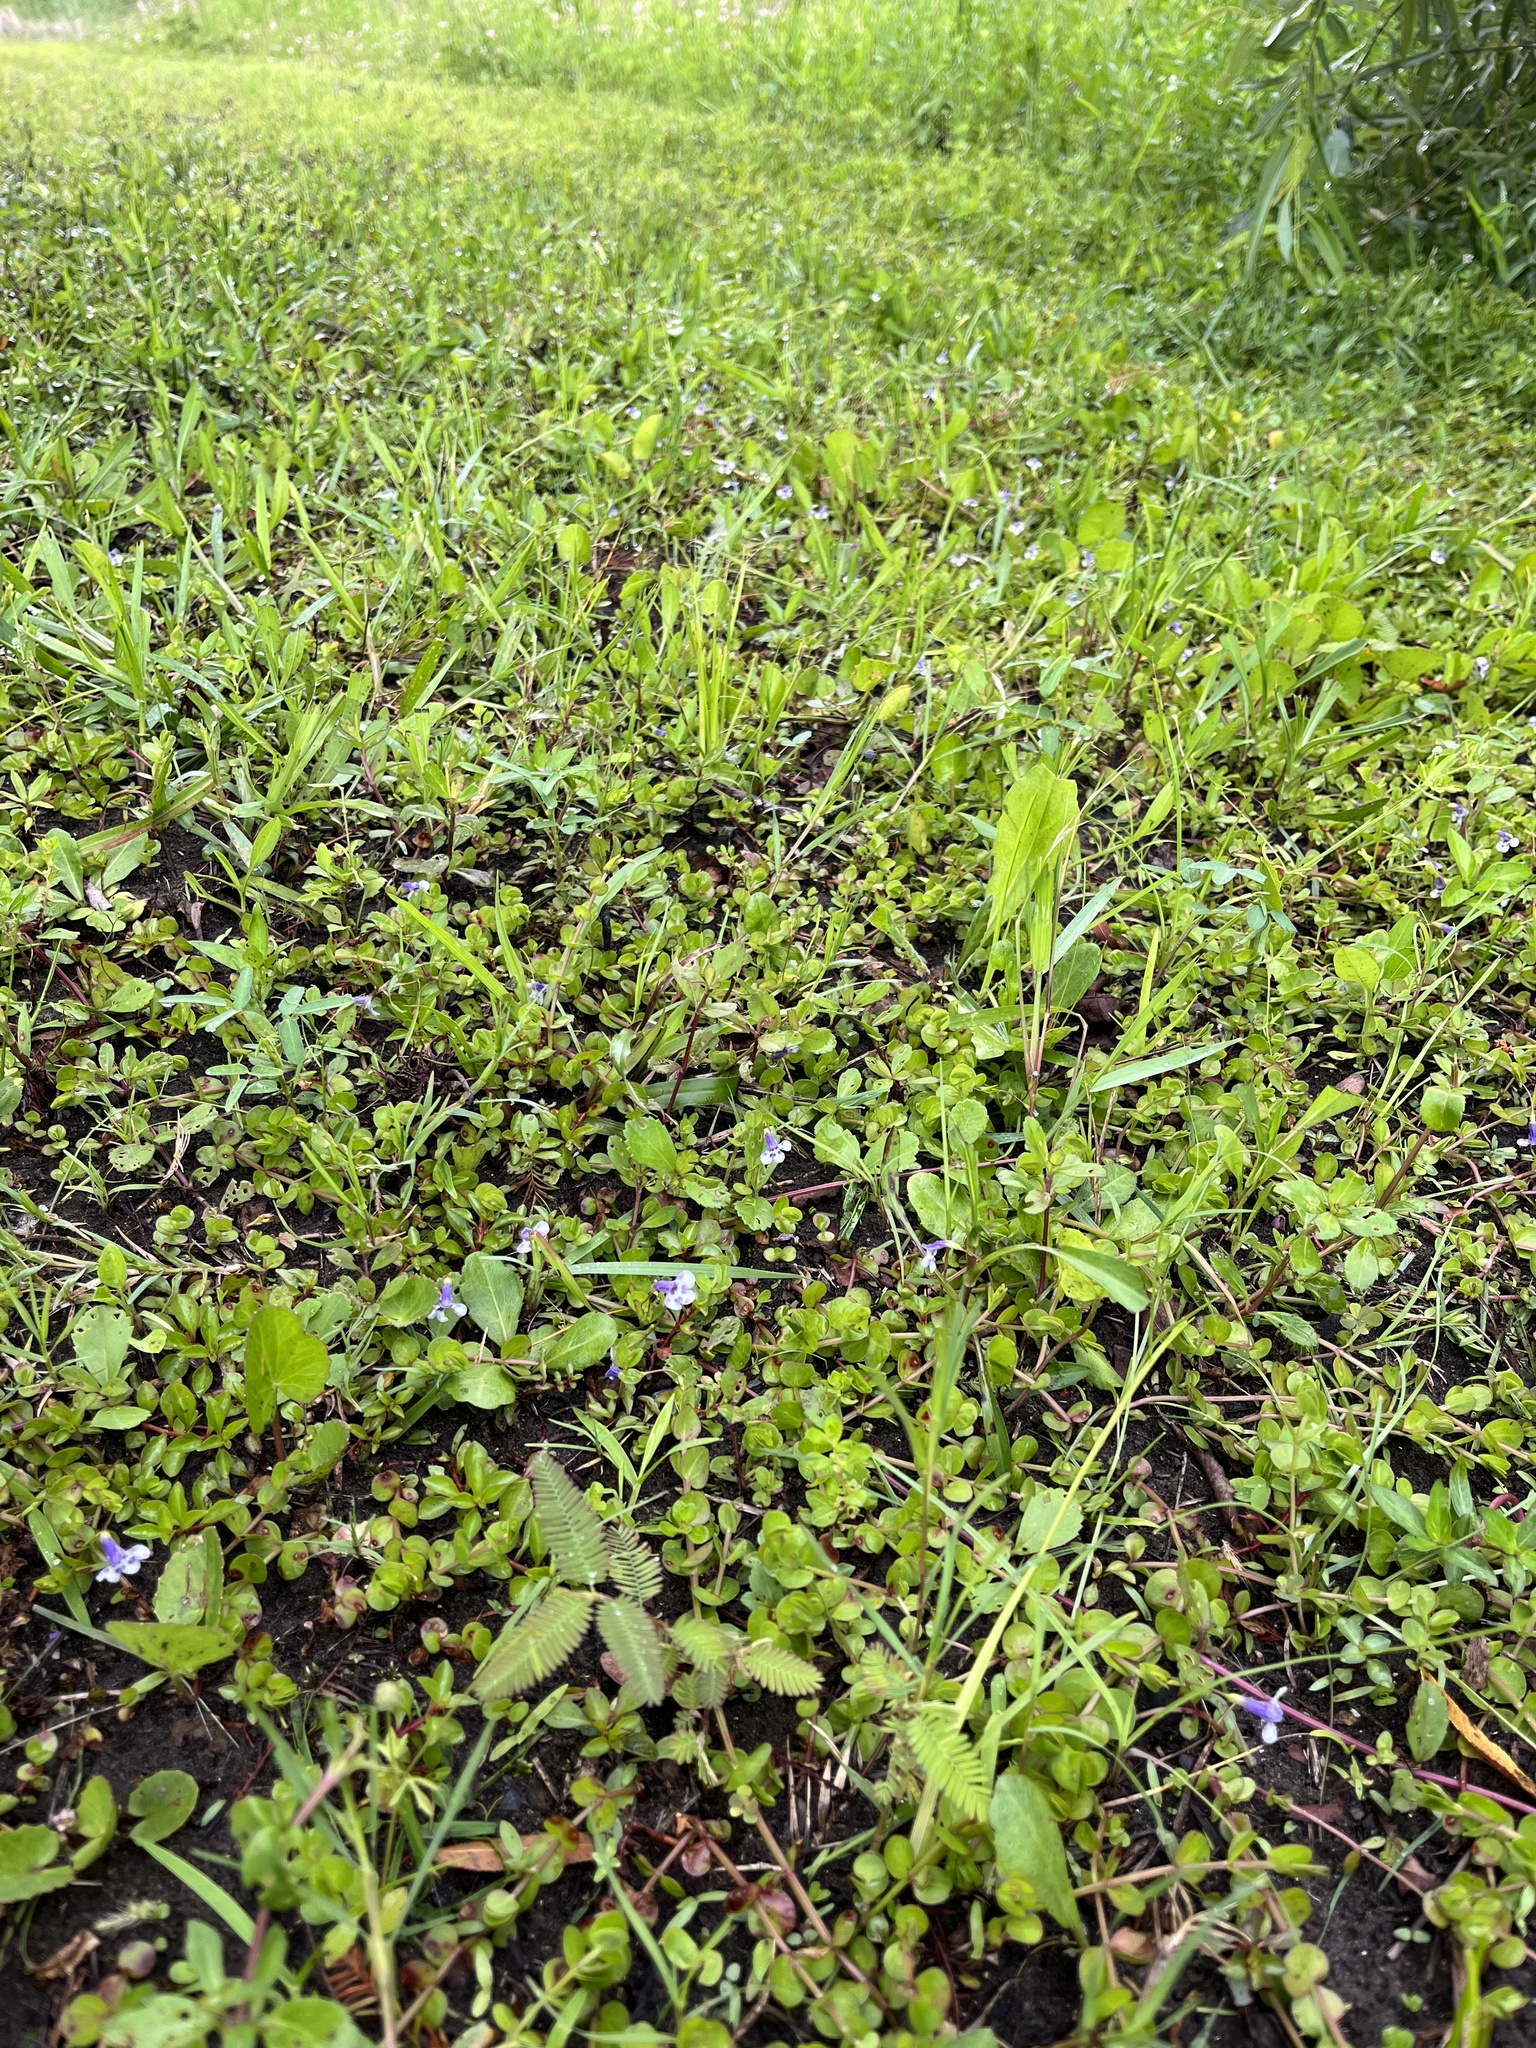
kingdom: Plantae
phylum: Tracheophyta
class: Magnoliopsida
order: Lamiales
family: Linderniaceae
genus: Lindernia
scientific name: Lindernia grandiflora
